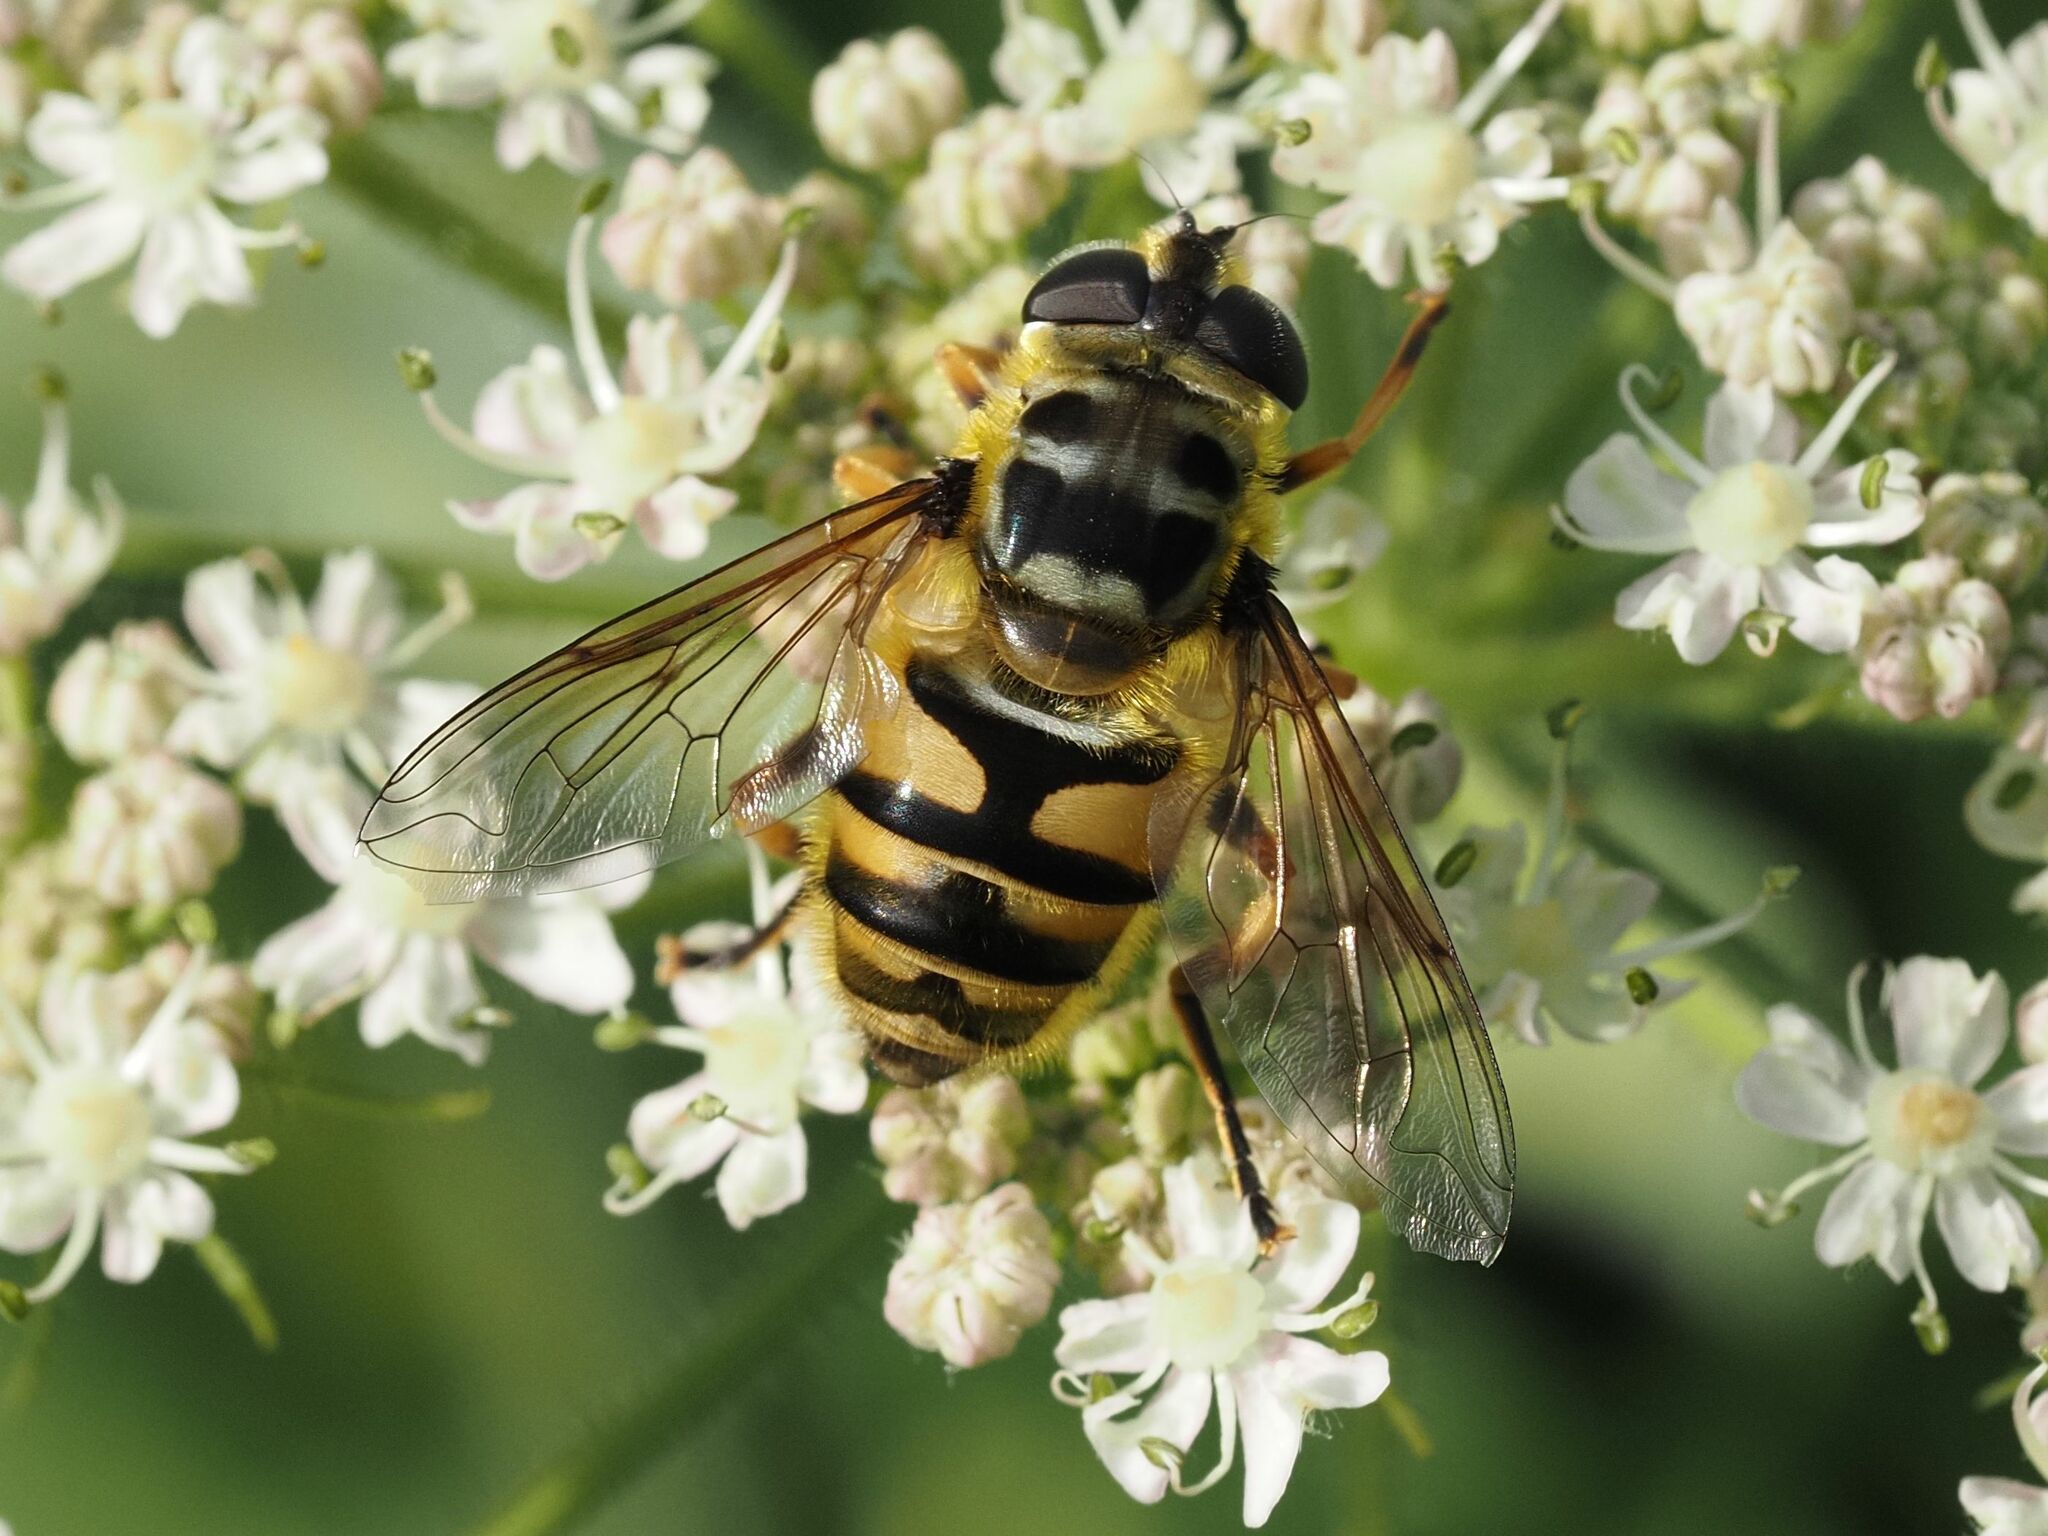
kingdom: Animalia
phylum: Arthropoda
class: Insecta
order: Diptera
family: Syrphidae
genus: Myathropa
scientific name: Myathropa florea
